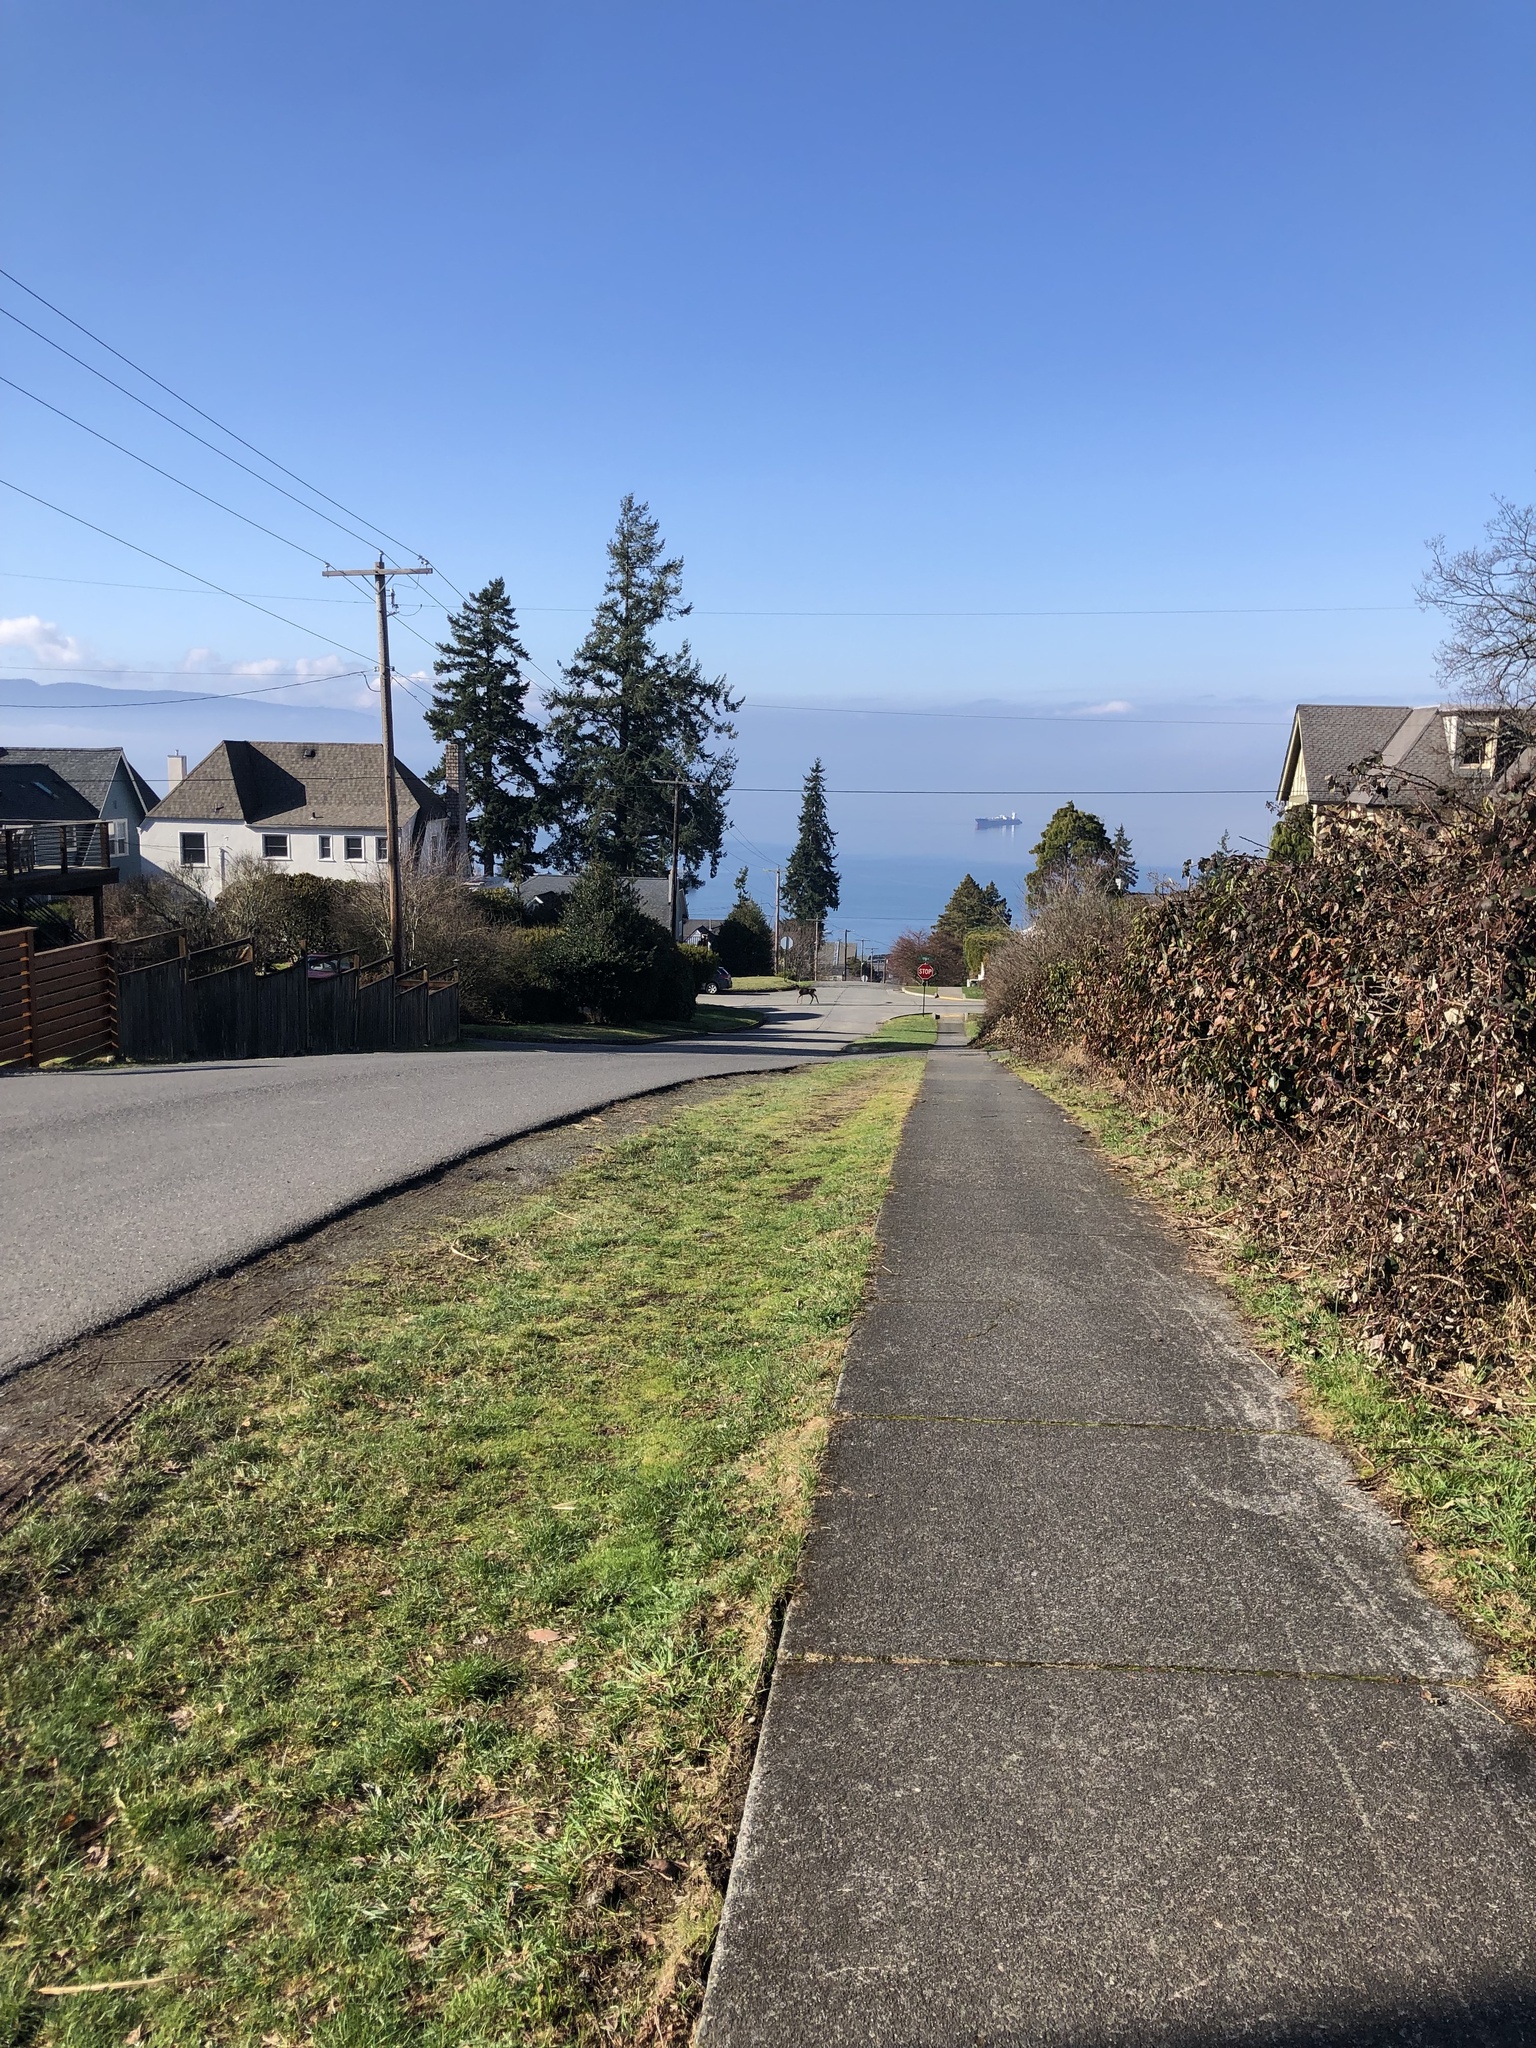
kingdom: Animalia
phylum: Chordata
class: Mammalia
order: Artiodactyla
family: Cervidae
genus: Odocoileus
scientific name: Odocoileus hemionus
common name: Mule deer
